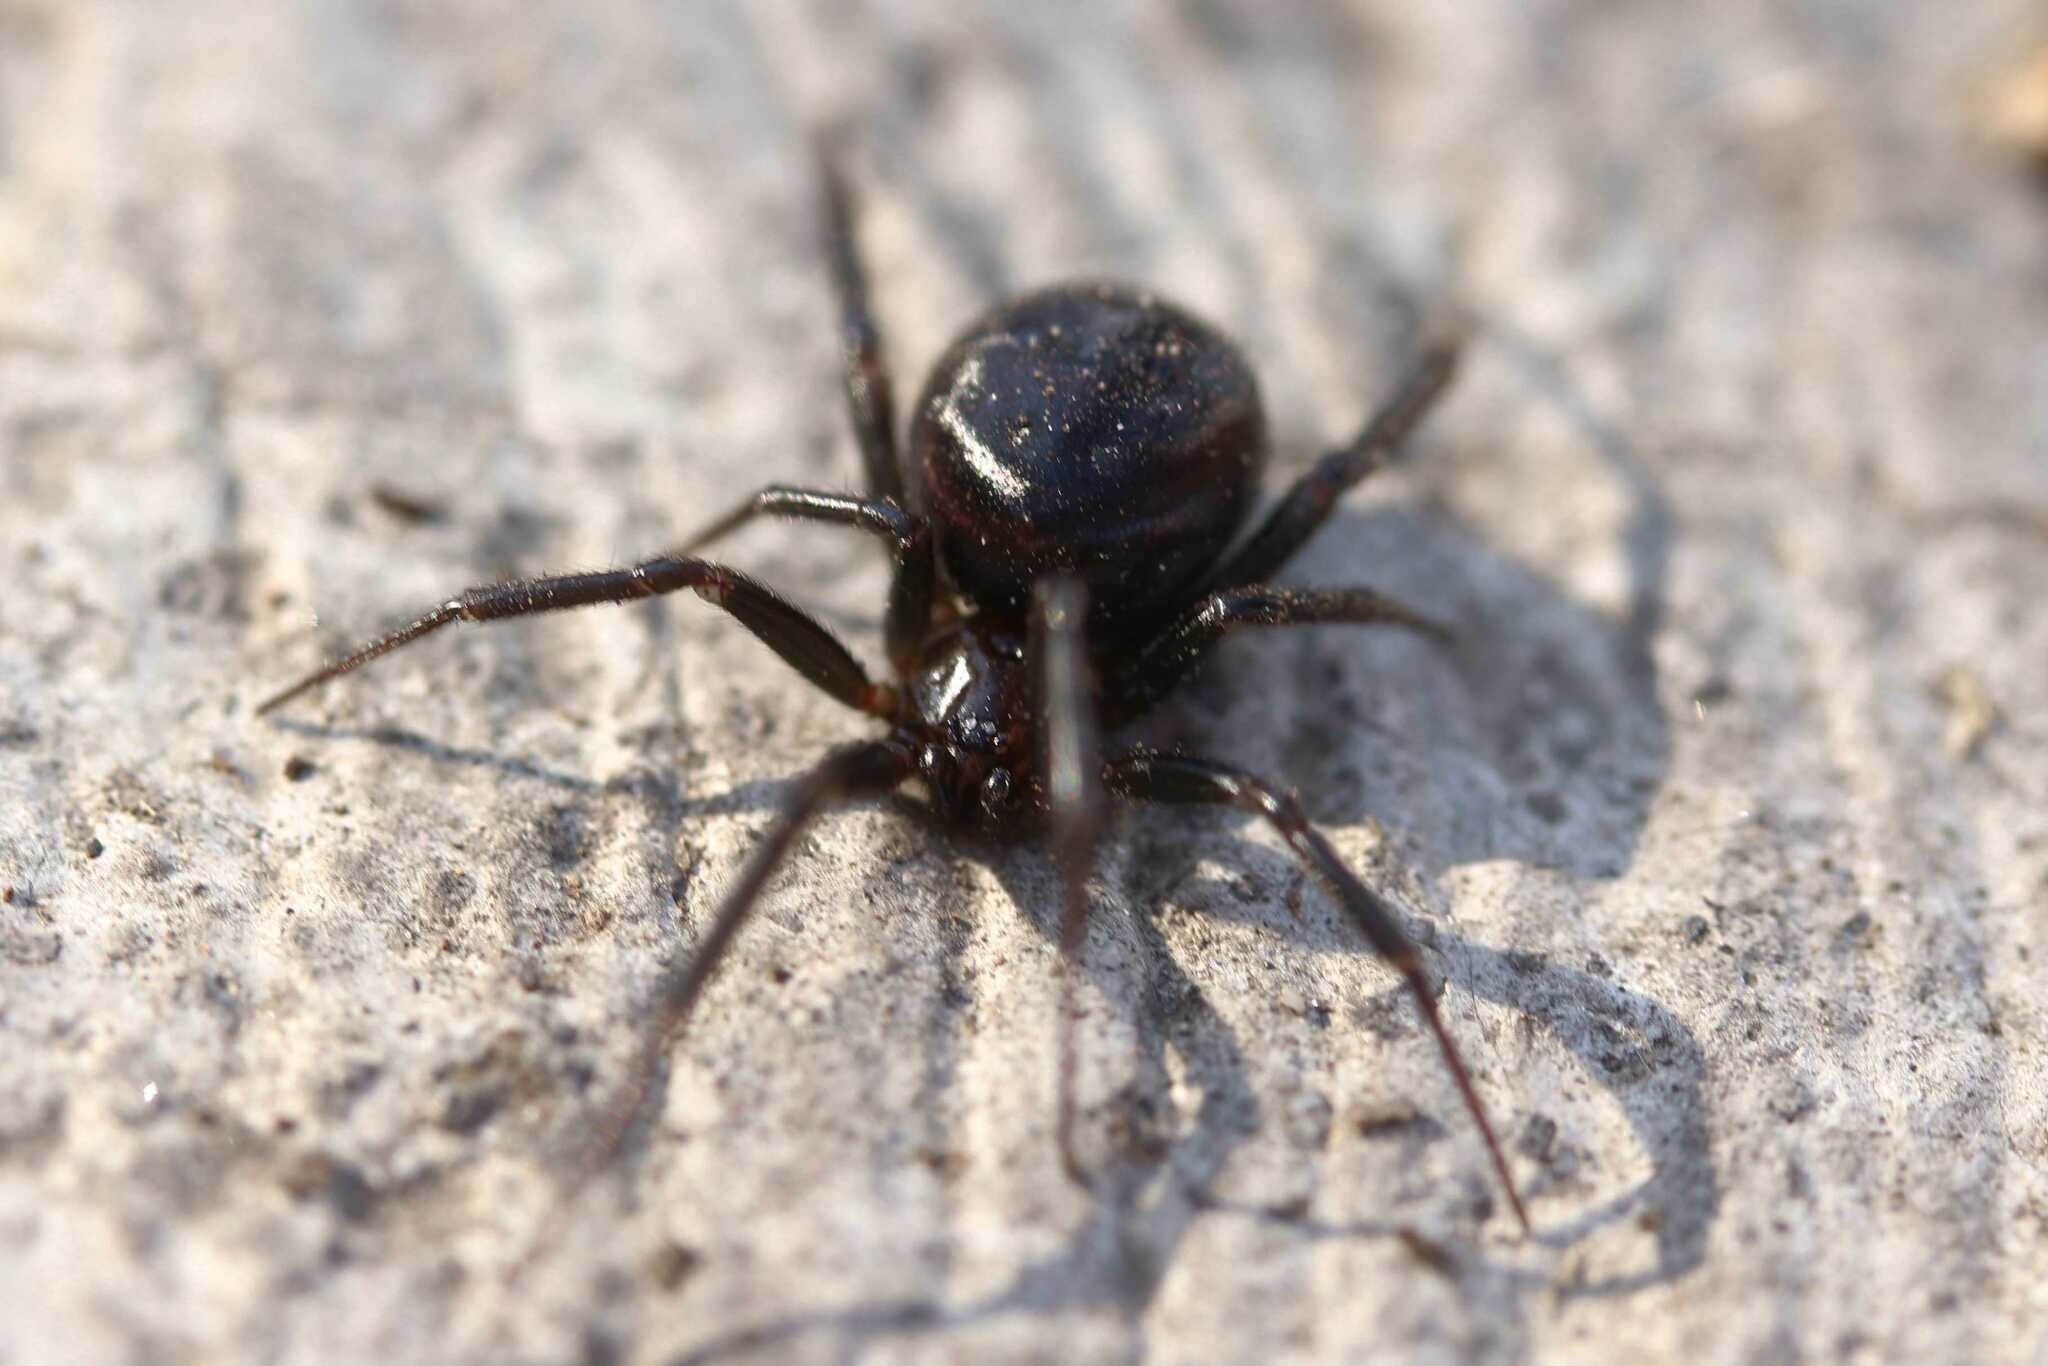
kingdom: Animalia
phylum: Arthropoda
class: Arachnida
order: Araneae
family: Theridiidae
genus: Steatoda
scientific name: Steatoda
